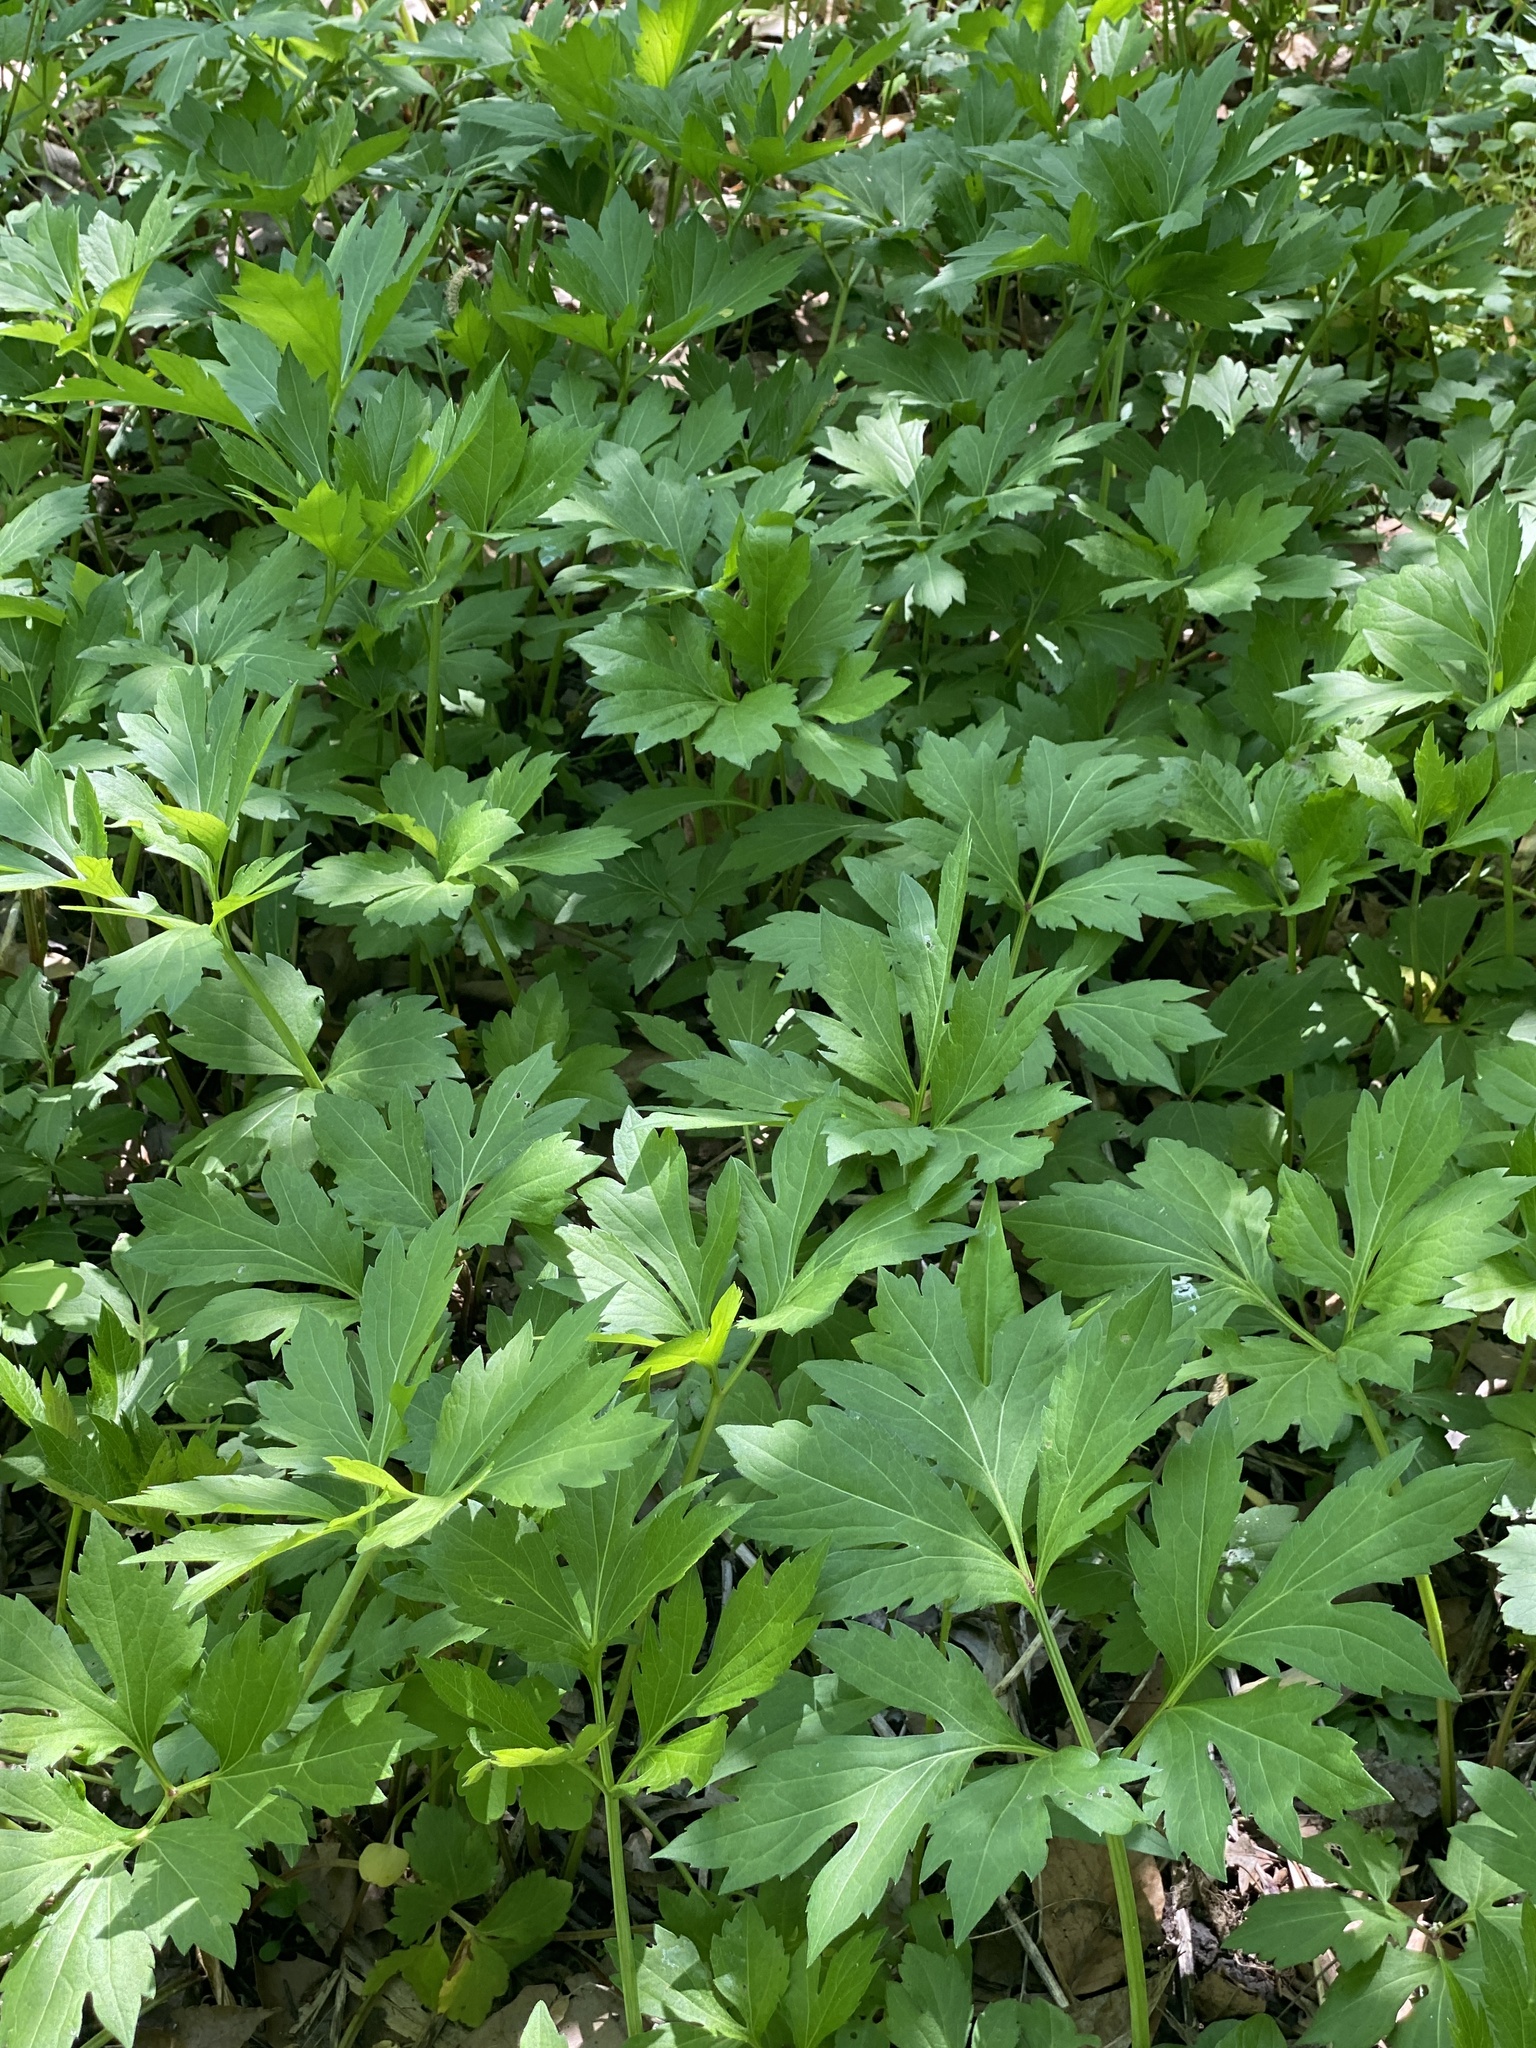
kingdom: Plantae
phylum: Tracheophyta
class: Magnoliopsida
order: Asterales
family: Asteraceae
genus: Rudbeckia
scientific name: Rudbeckia laciniata
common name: Coneflower
